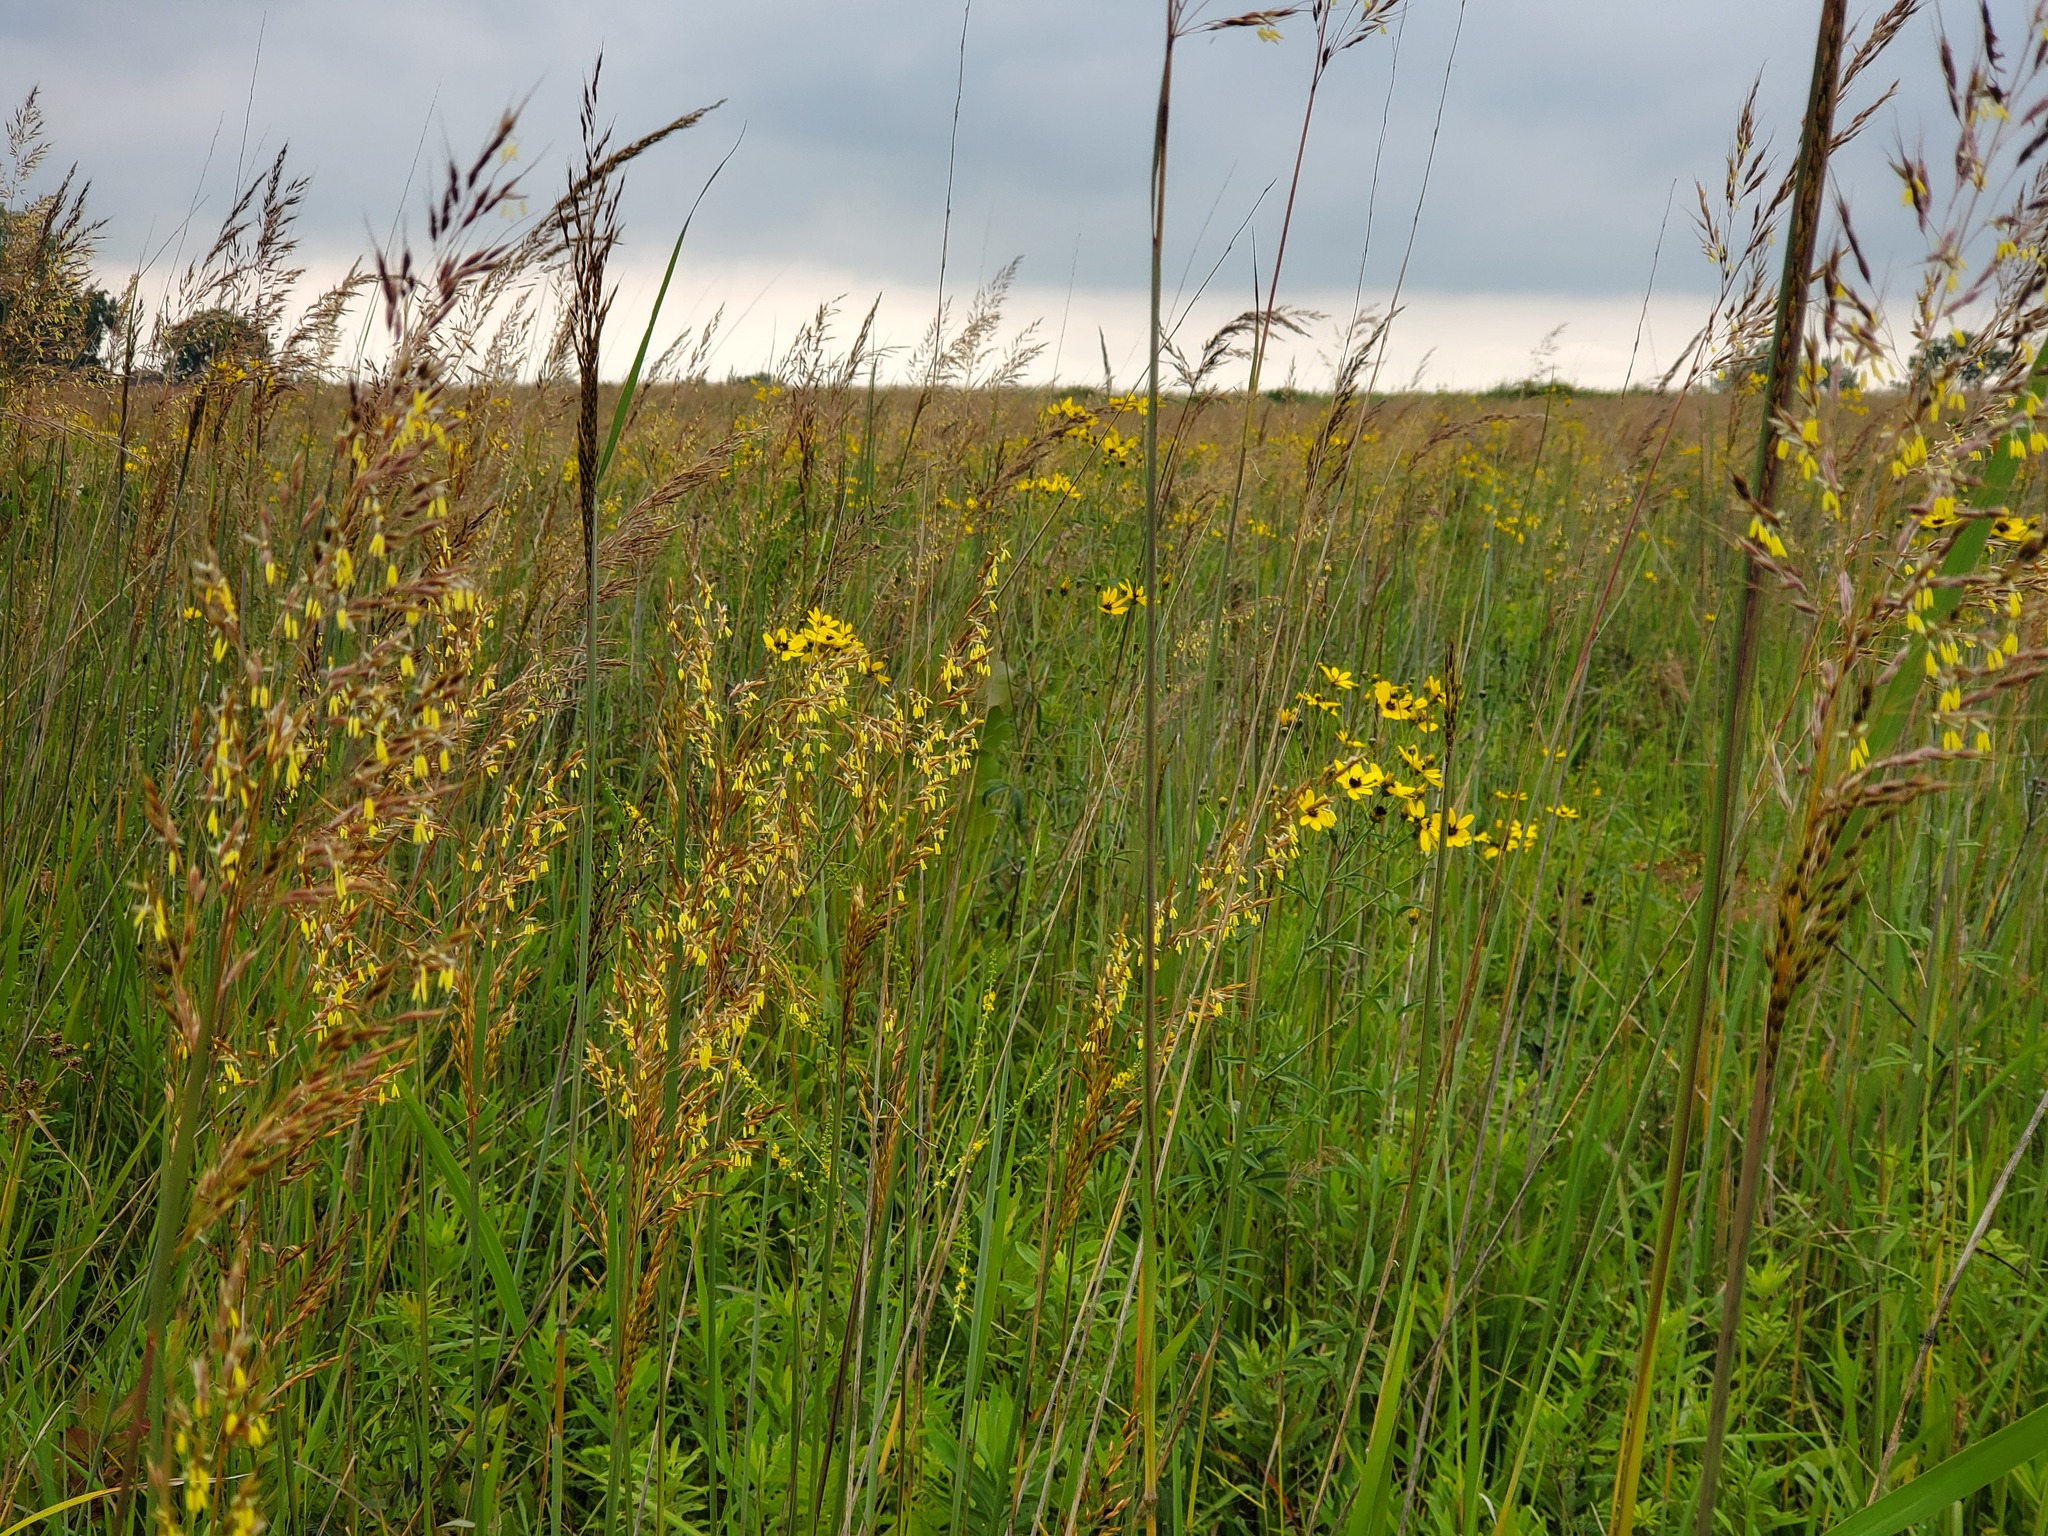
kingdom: Plantae
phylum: Tracheophyta
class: Liliopsida
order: Poales
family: Poaceae
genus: Sorghastrum
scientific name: Sorghastrum nutans
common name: Indian grass
